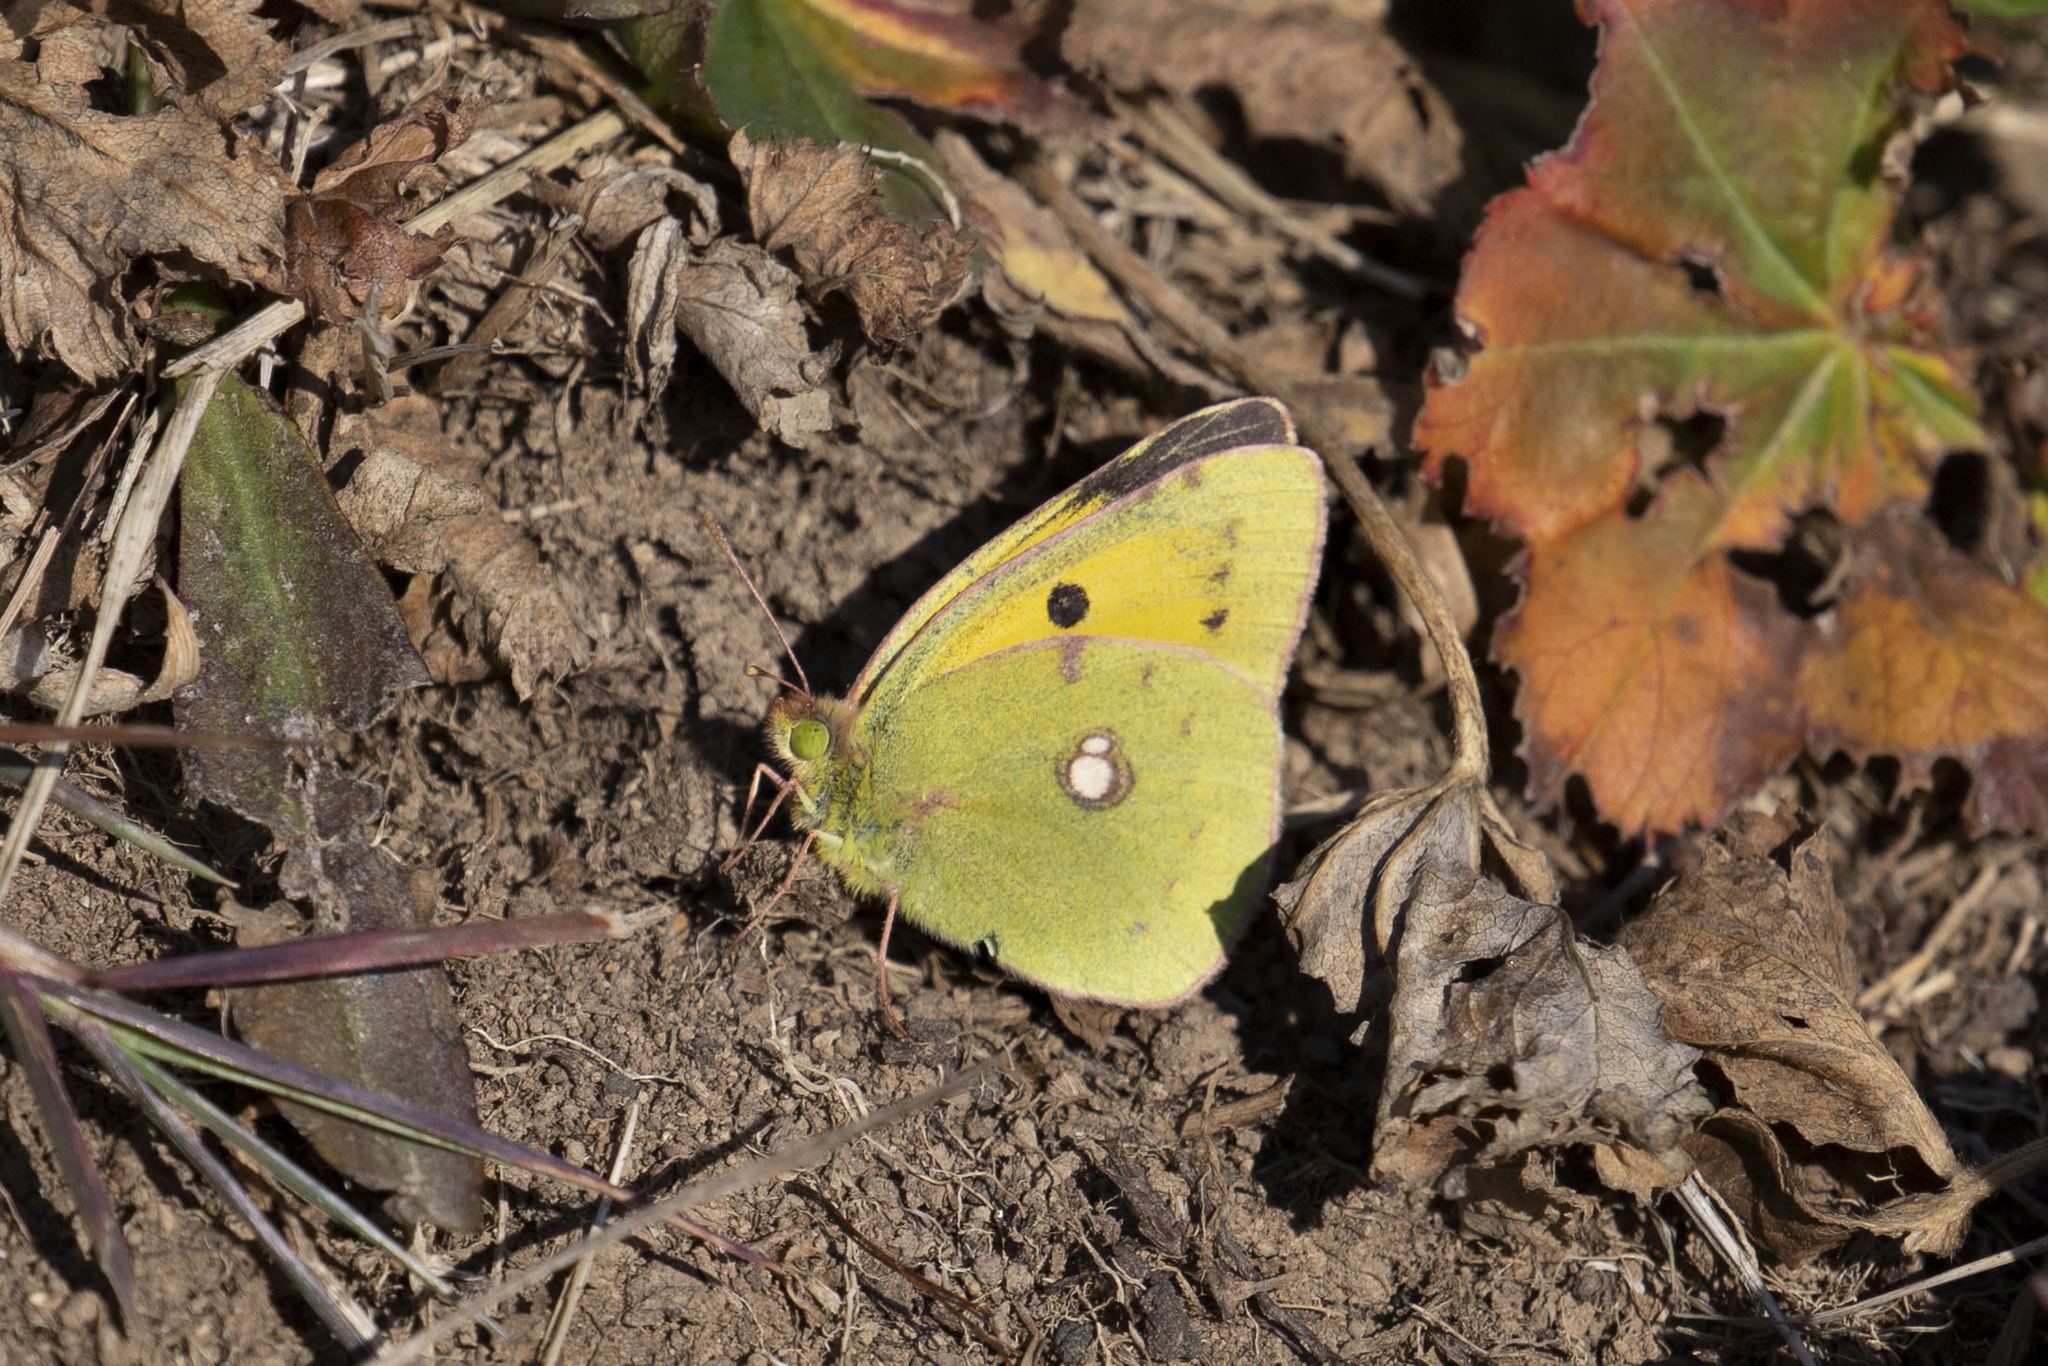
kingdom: Animalia
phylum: Arthropoda
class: Insecta
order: Lepidoptera
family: Pieridae
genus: Colias
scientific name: Colias croceus
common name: Clouded yellow
